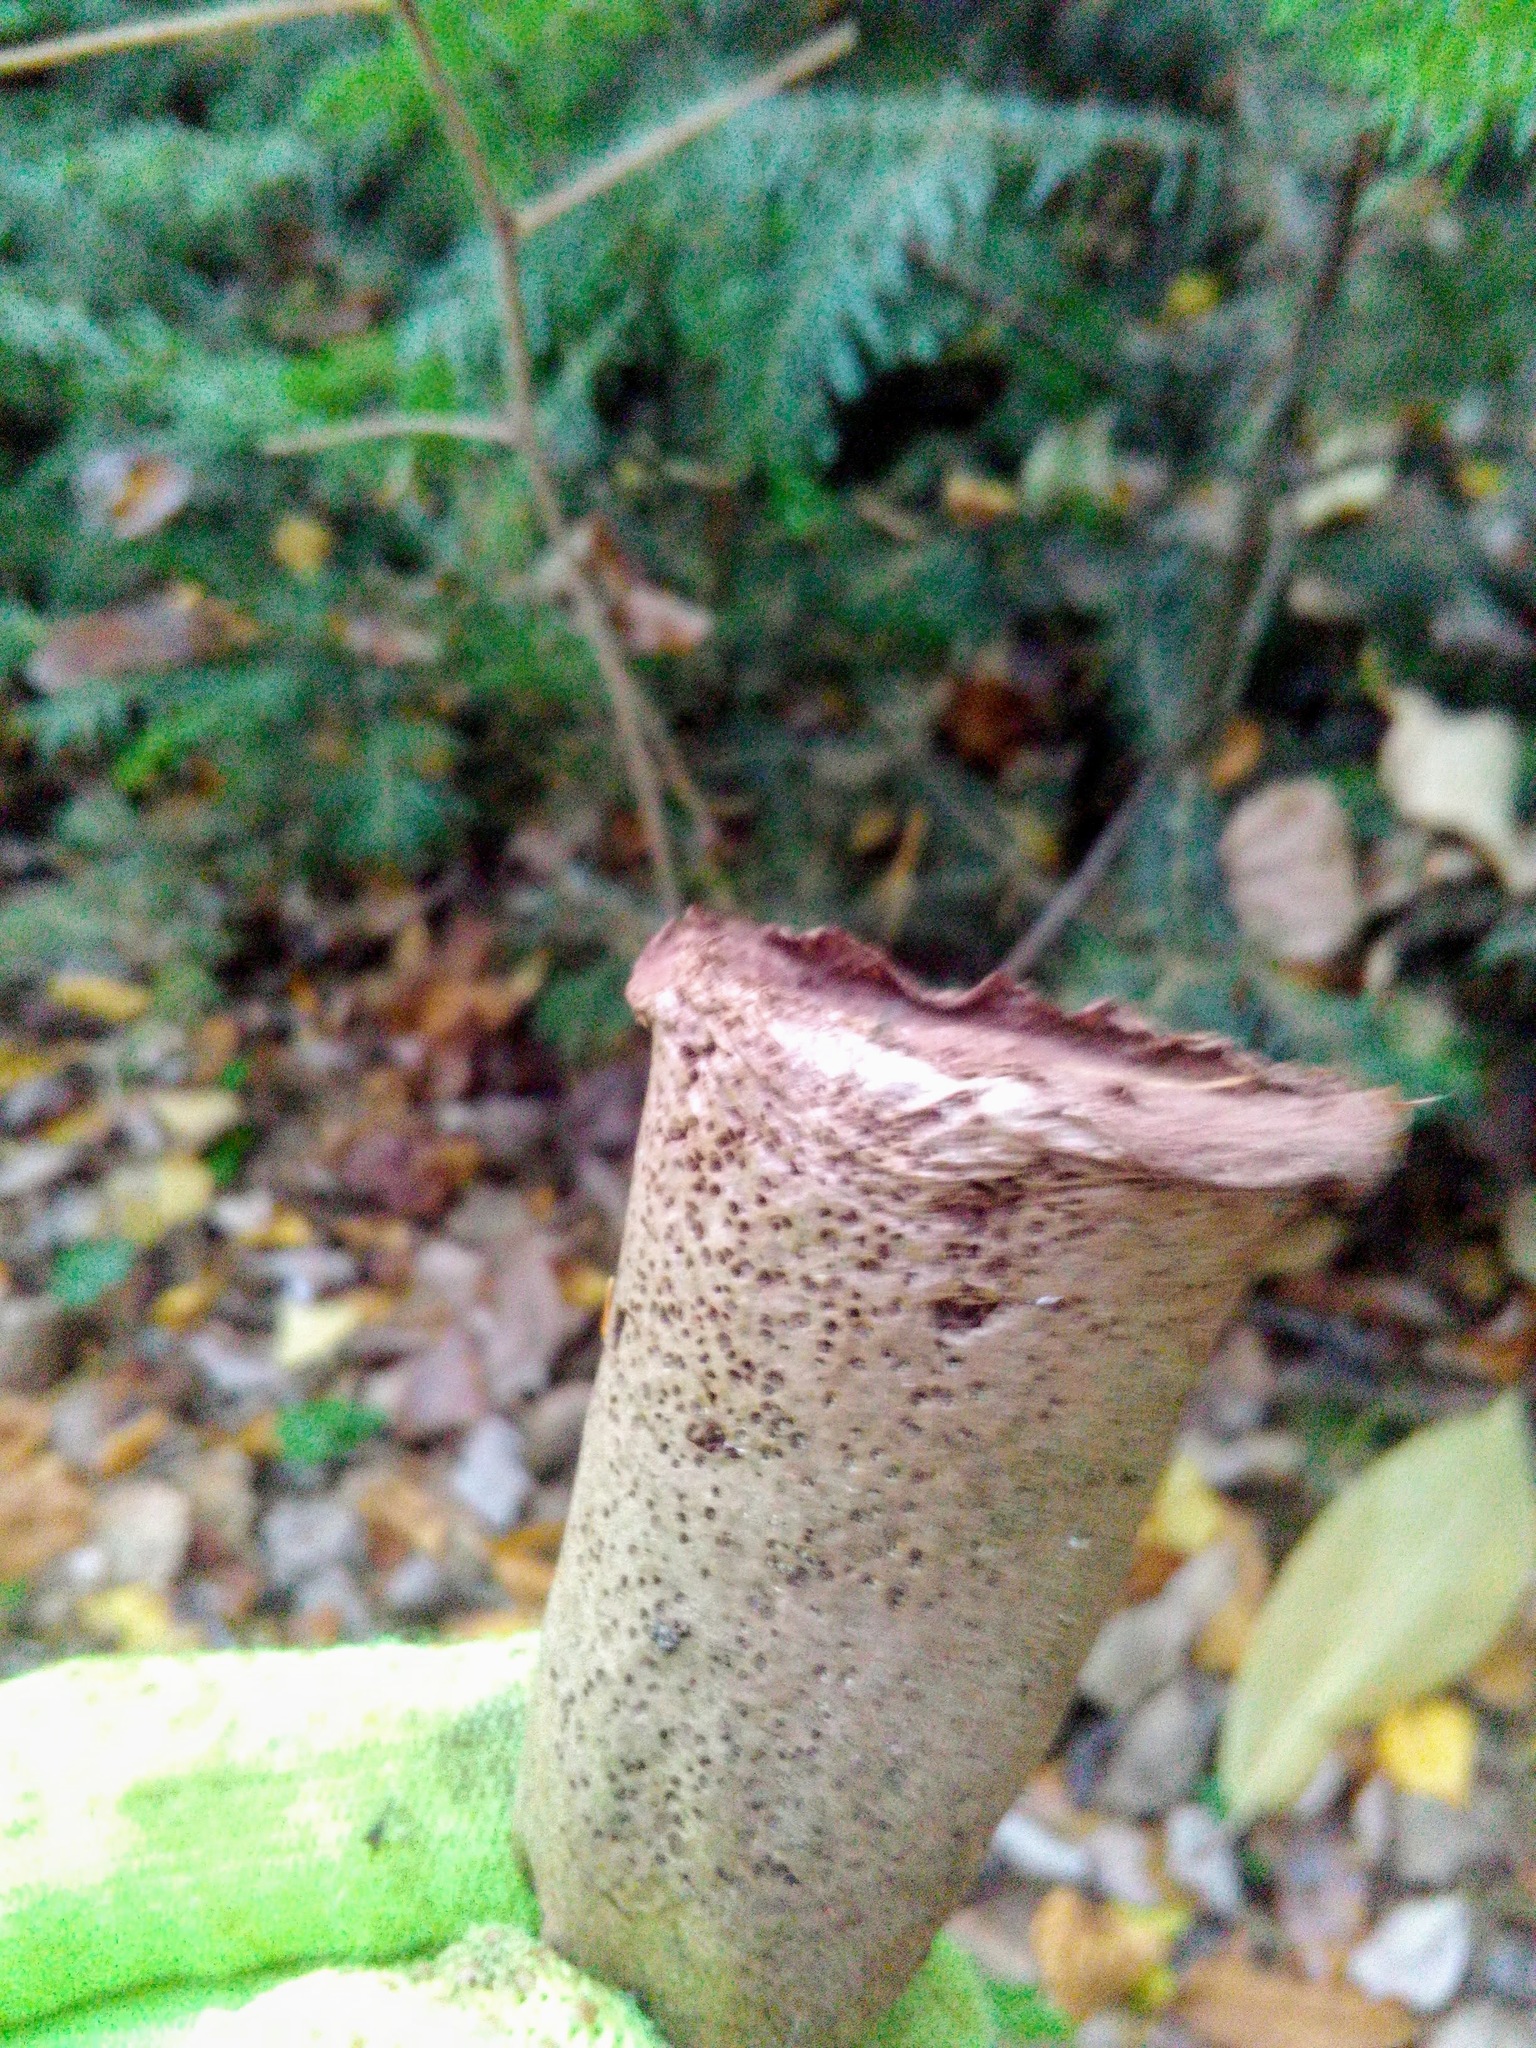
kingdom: Fungi
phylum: Basidiomycota
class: Agaricomycetes
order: Agaricales
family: Lycoperdaceae
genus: Lycoperdon
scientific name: Lycoperdon excipuliforme
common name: Pestle puffball
